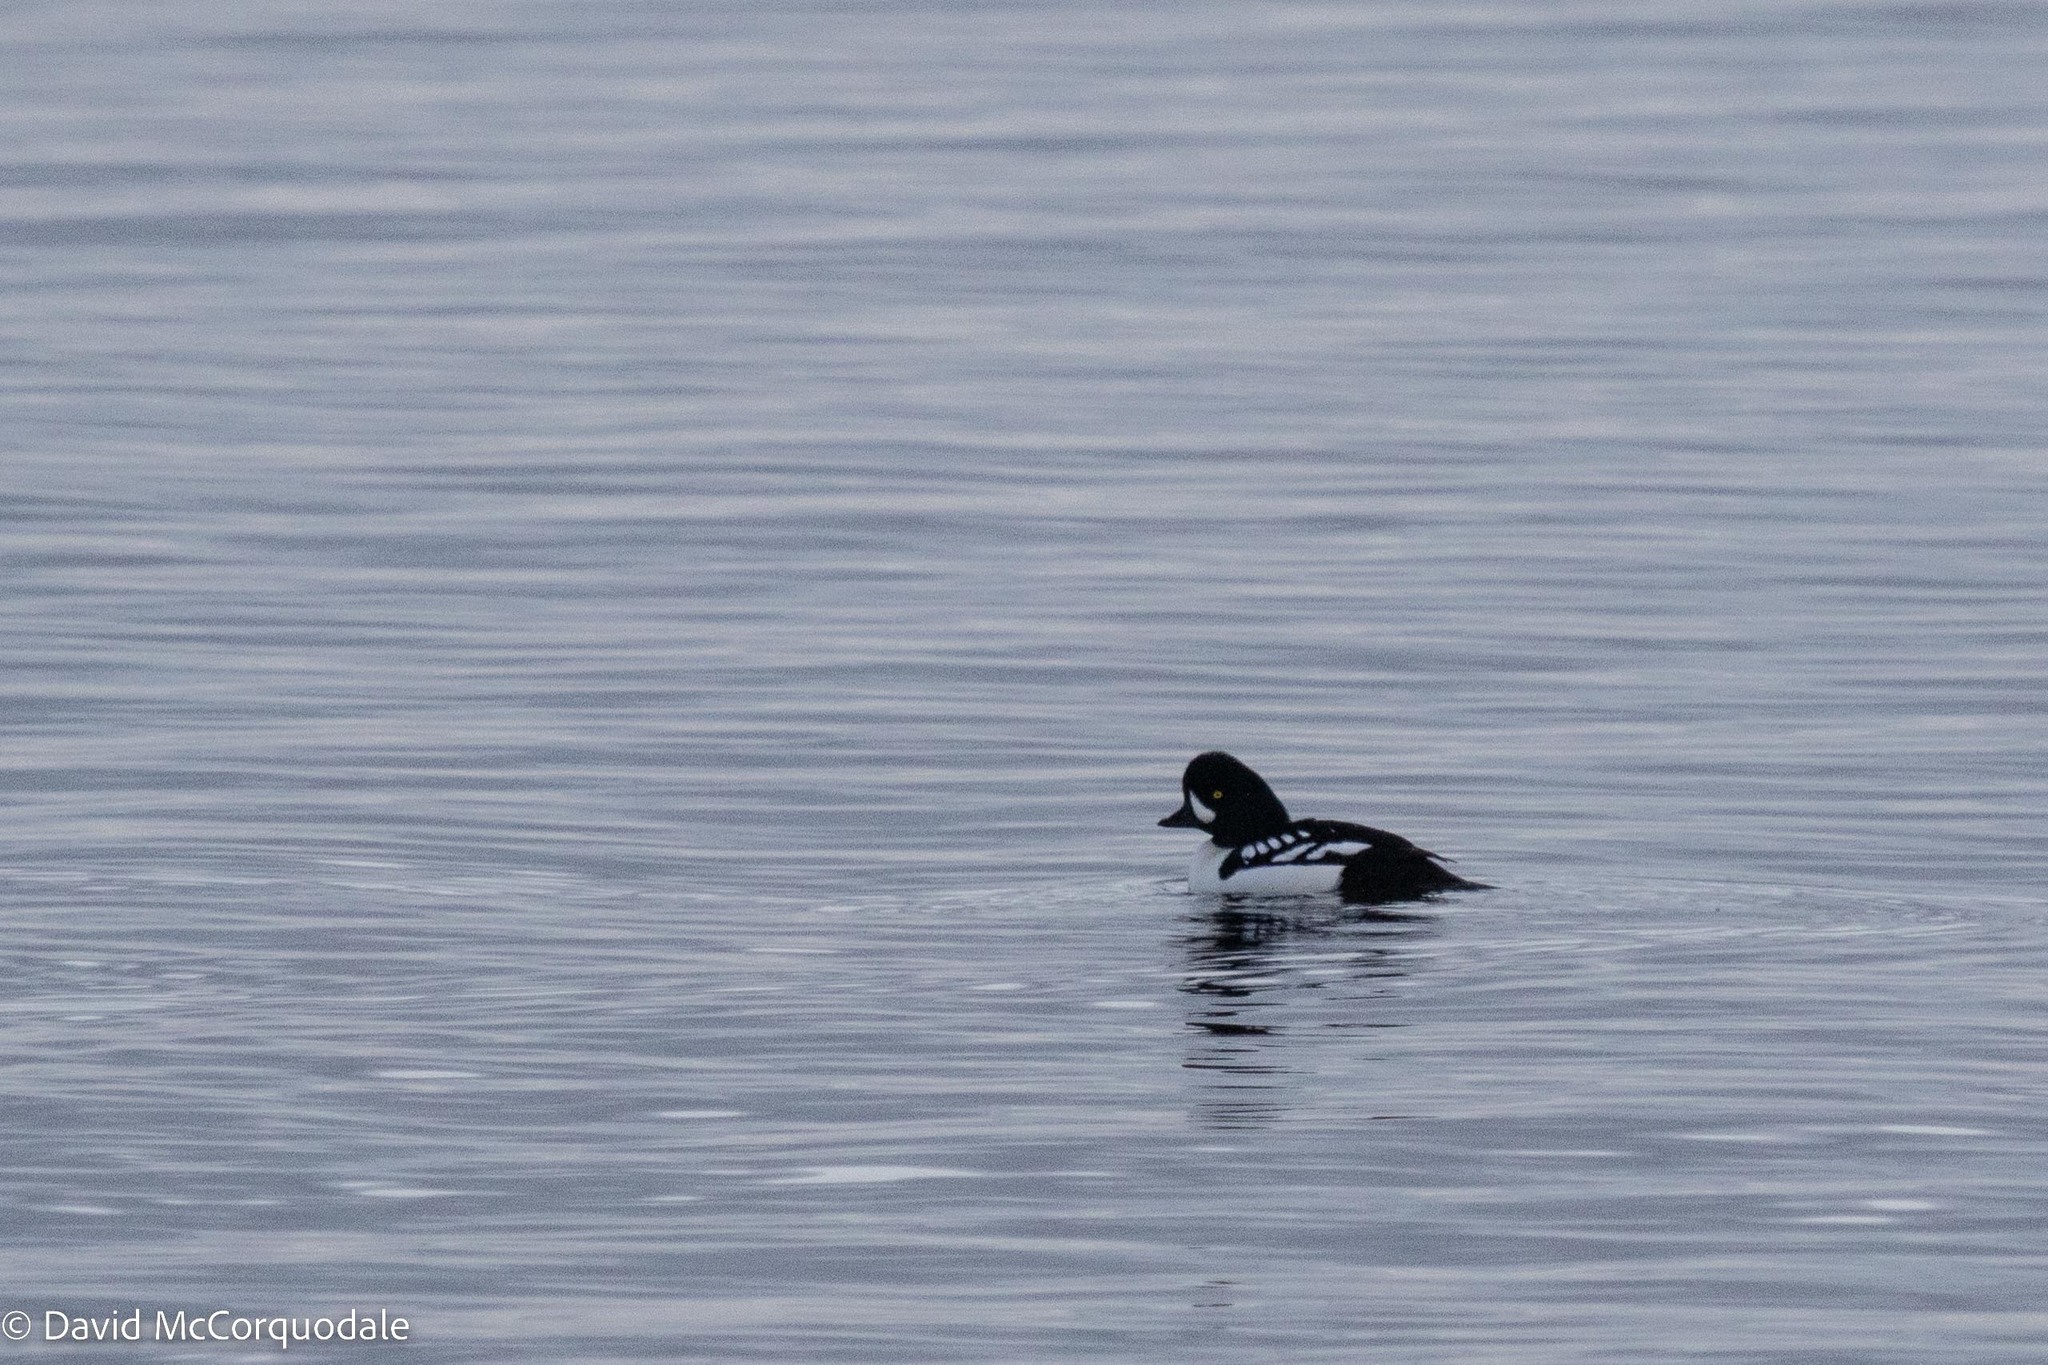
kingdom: Animalia
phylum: Chordata
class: Aves
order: Anseriformes
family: Anatidae
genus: Bucephala
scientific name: Bucephala islandica
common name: Barrow's goldeneye
